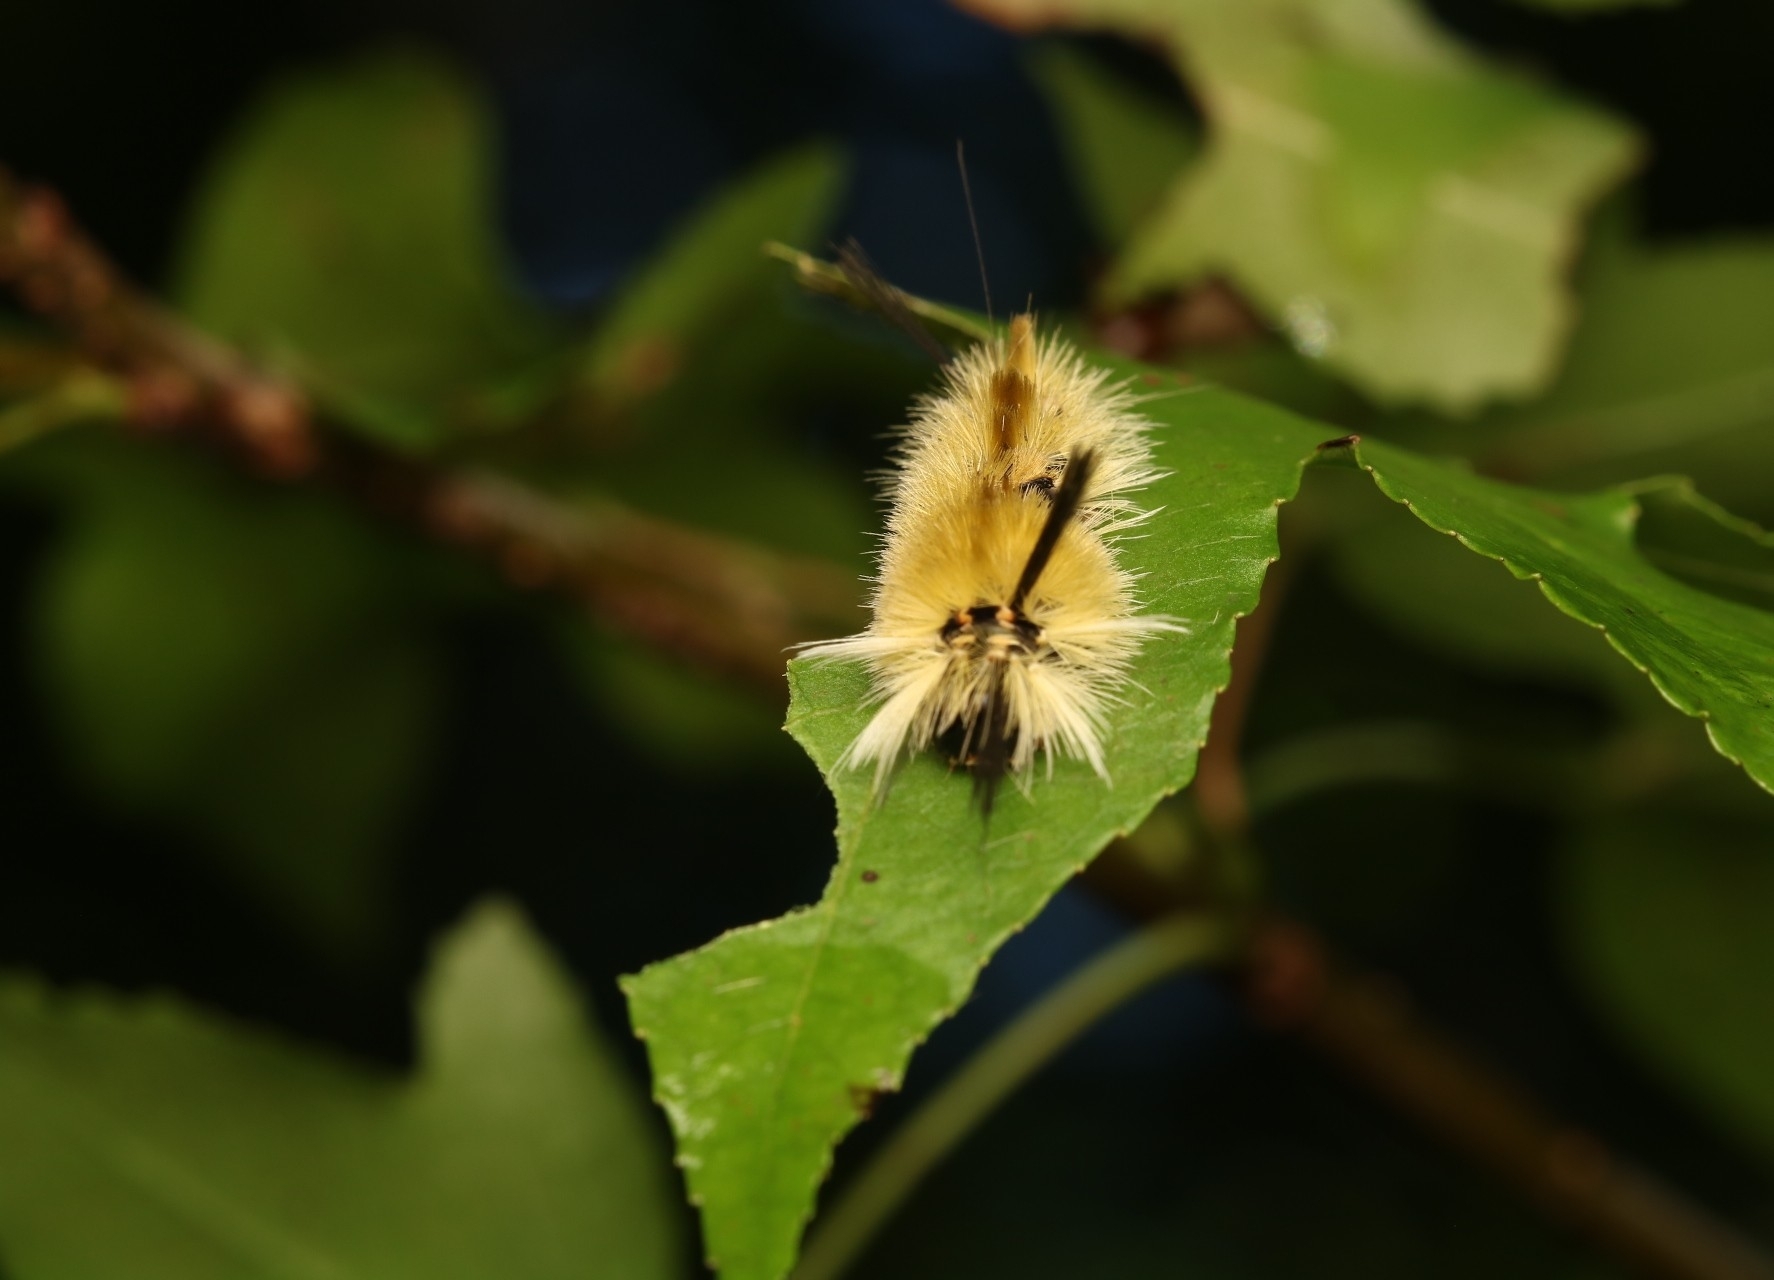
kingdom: Animalia
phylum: Arthropoda
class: Insecta
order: Lepidoptera
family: Erebidae
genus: Halysidota
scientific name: Halysidota tessellaris
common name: Banded tussock moth
